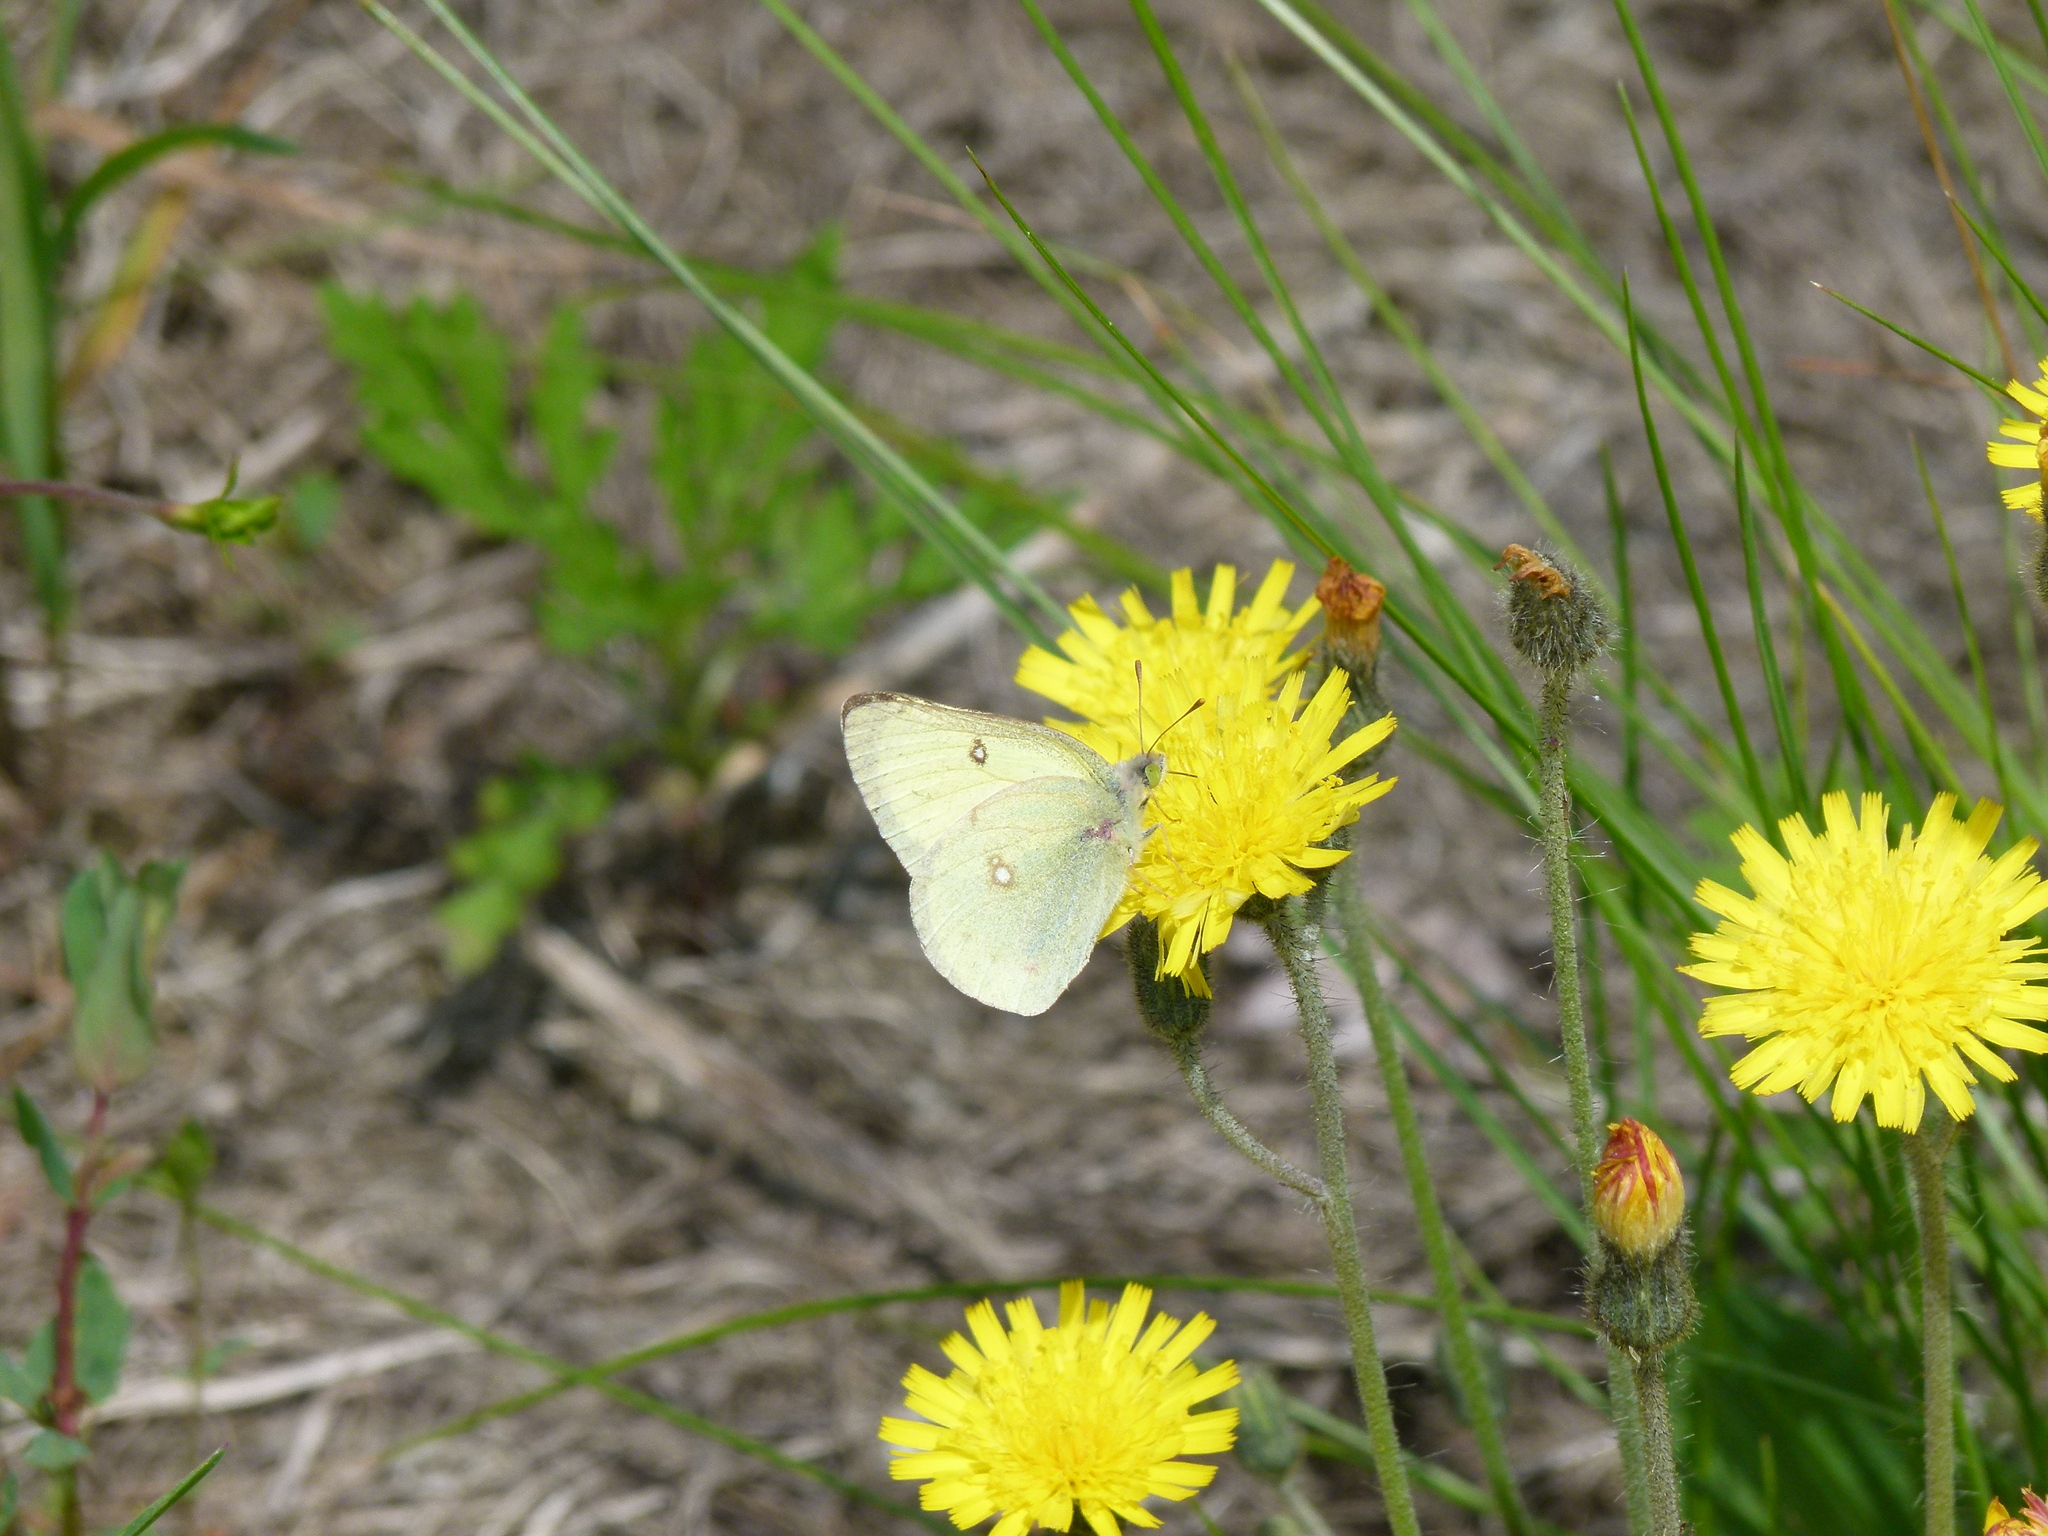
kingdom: Animalia
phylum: Arthropoda
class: Insecta
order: Lepidoptera
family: Pieridae
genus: Colias
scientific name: Colias philodice
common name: Clouded sulphur
